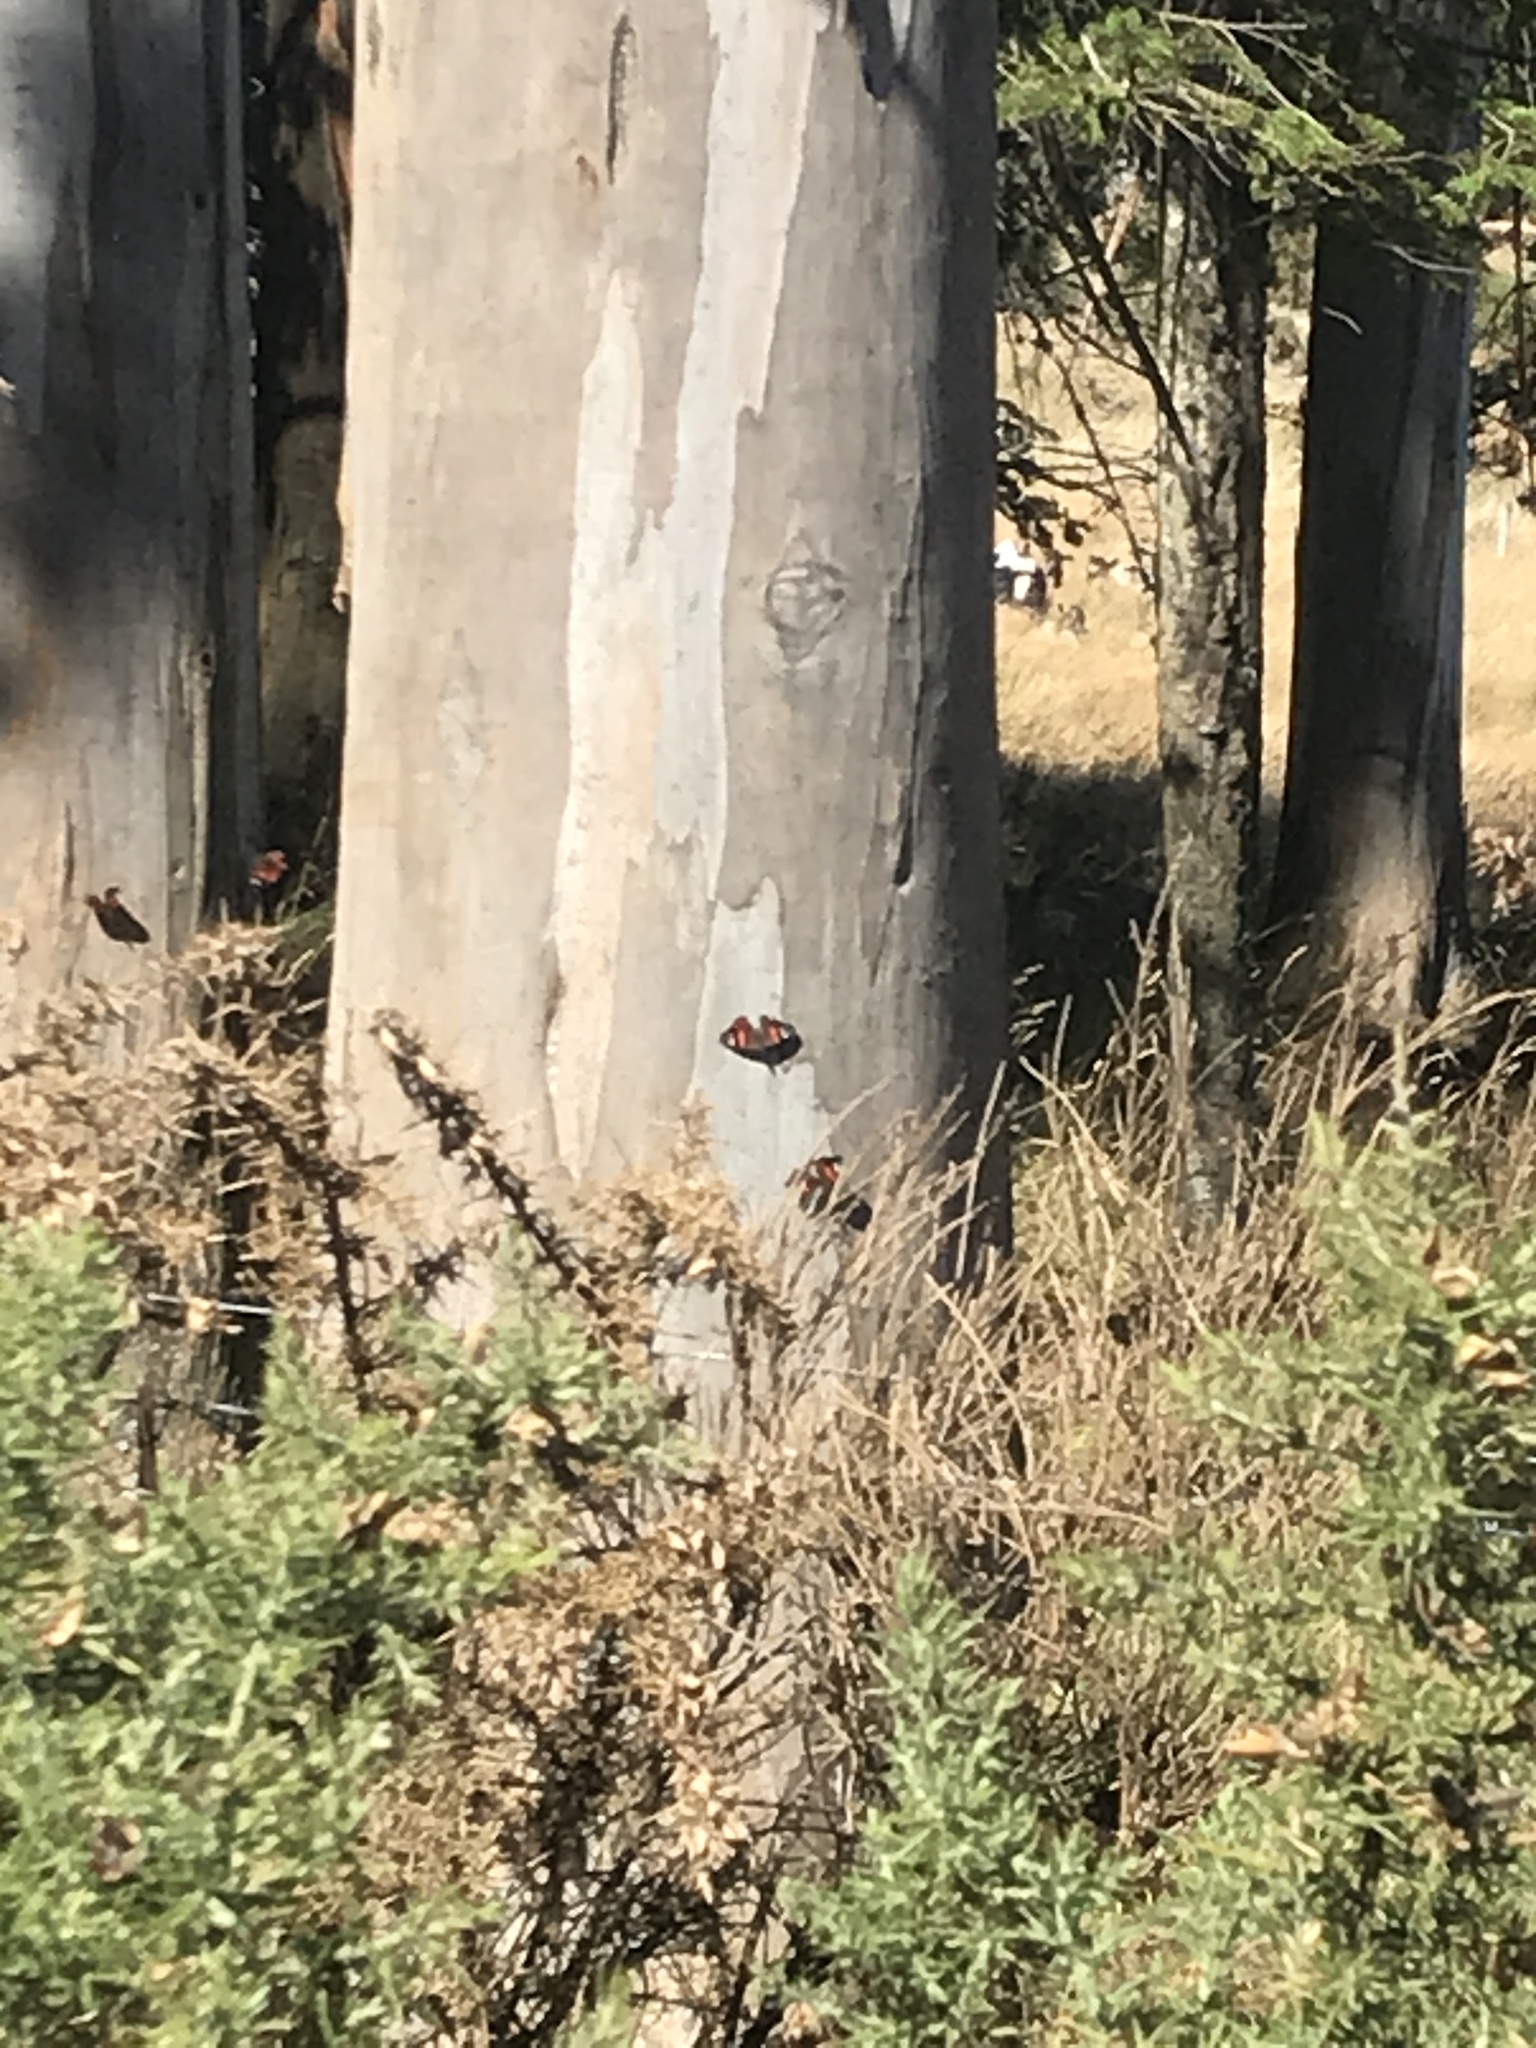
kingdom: Animalia
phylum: Arthropoda
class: Insecta
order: Lepidoptera
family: Nymphalidae
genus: Vanessa
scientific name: Vanessa gonerilla
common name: New zealand red admiral
